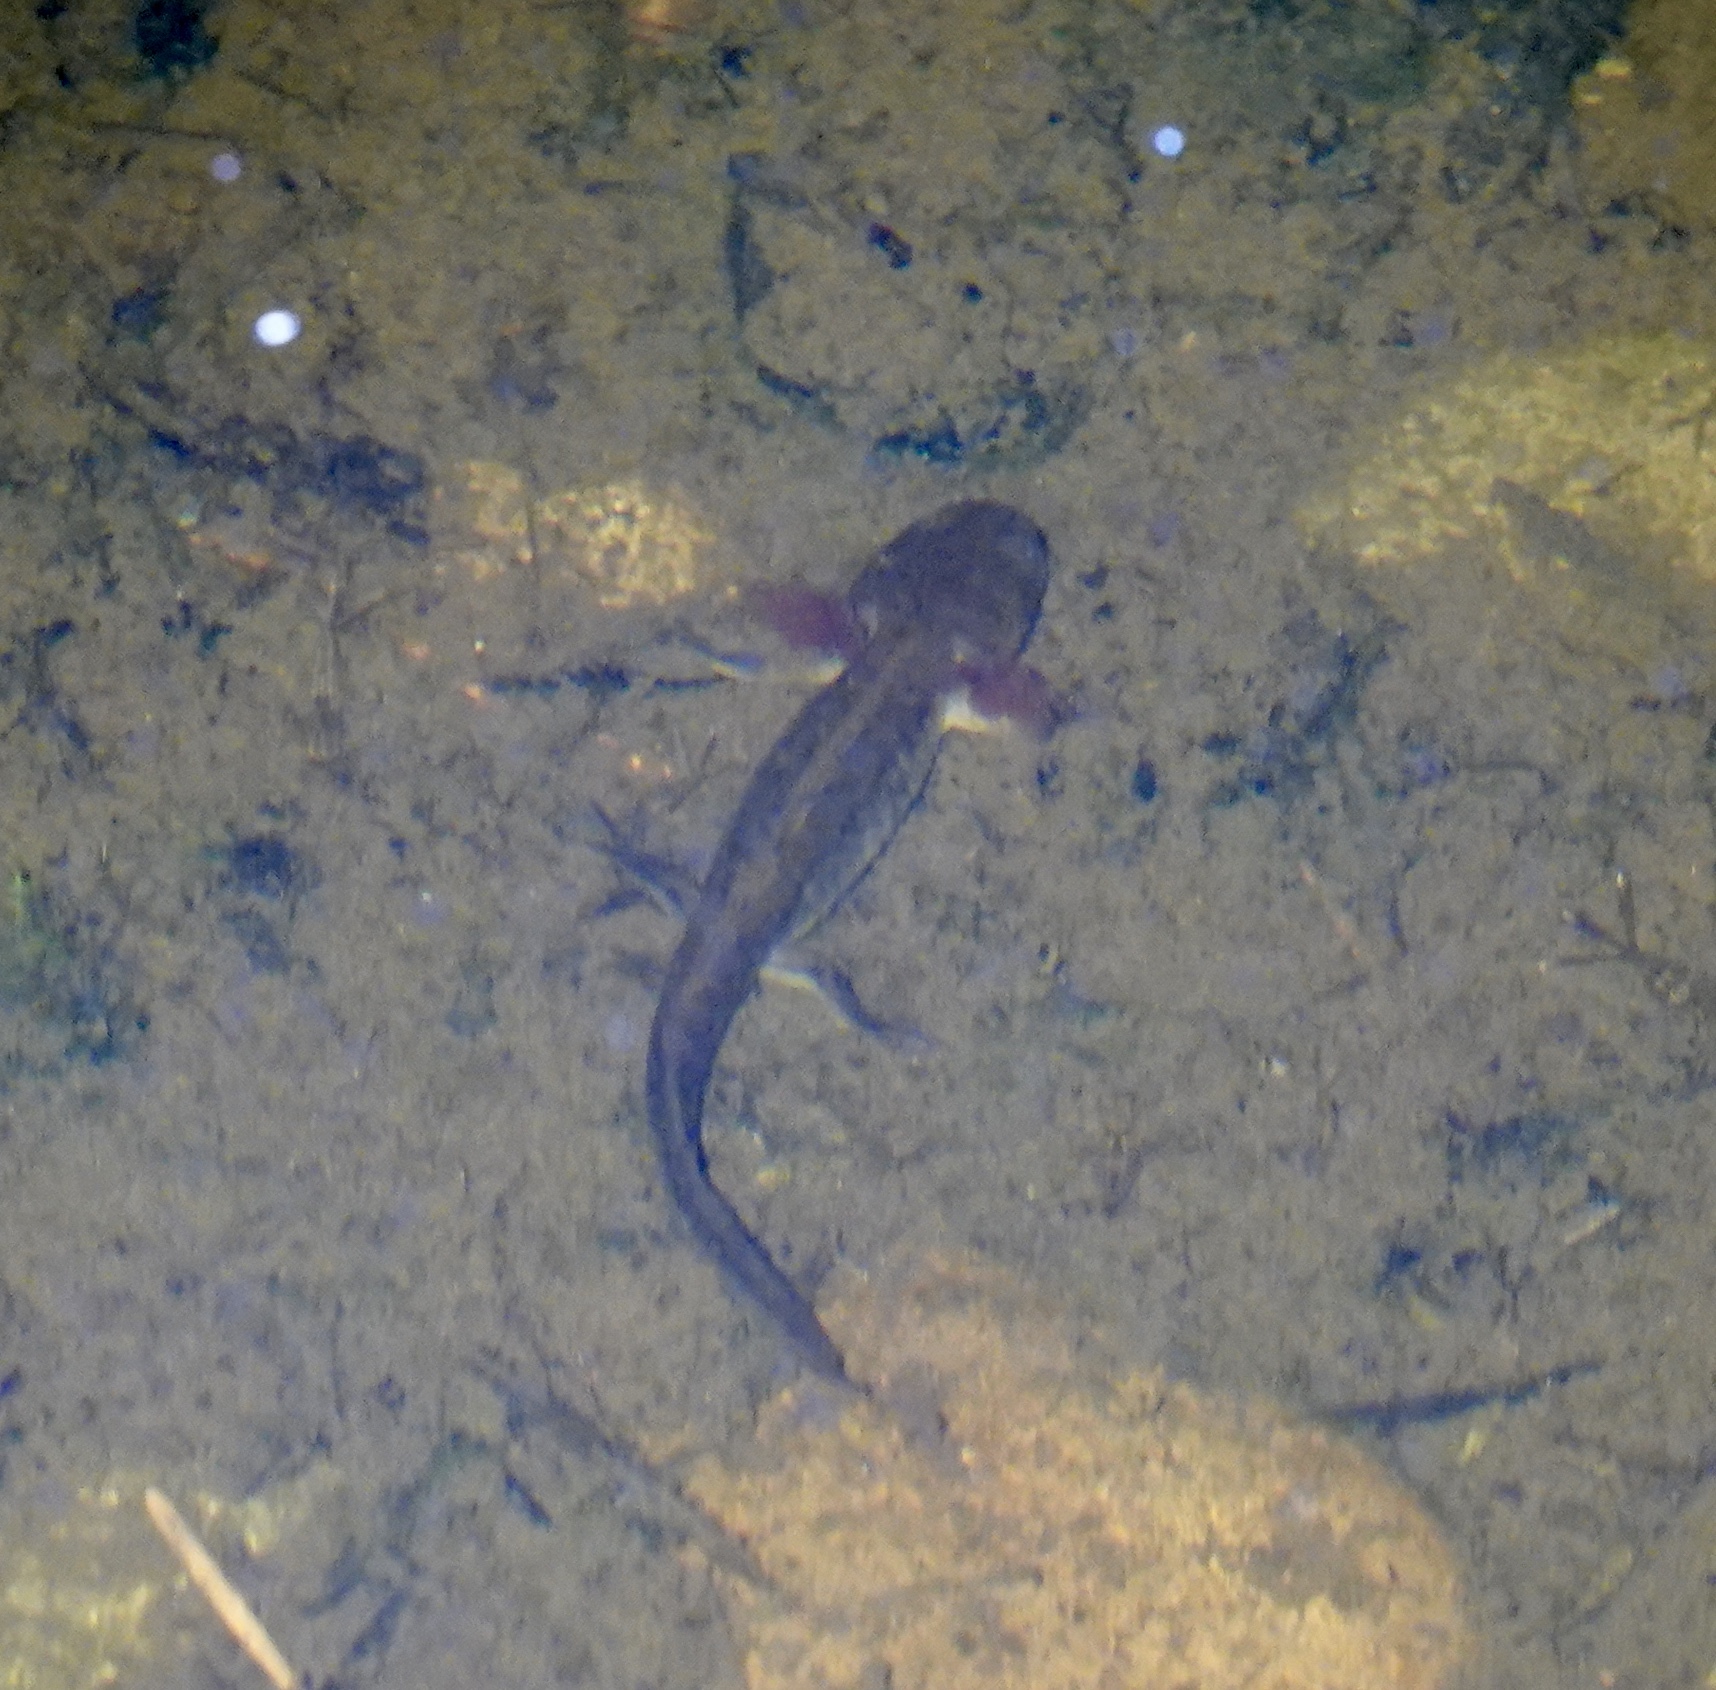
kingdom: Animalia
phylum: Chordata
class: Amphibia
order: Caudata
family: Ambystomatidae
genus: Ambystoma
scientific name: Ambystoma macrodactylum
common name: Long-toed salamander
